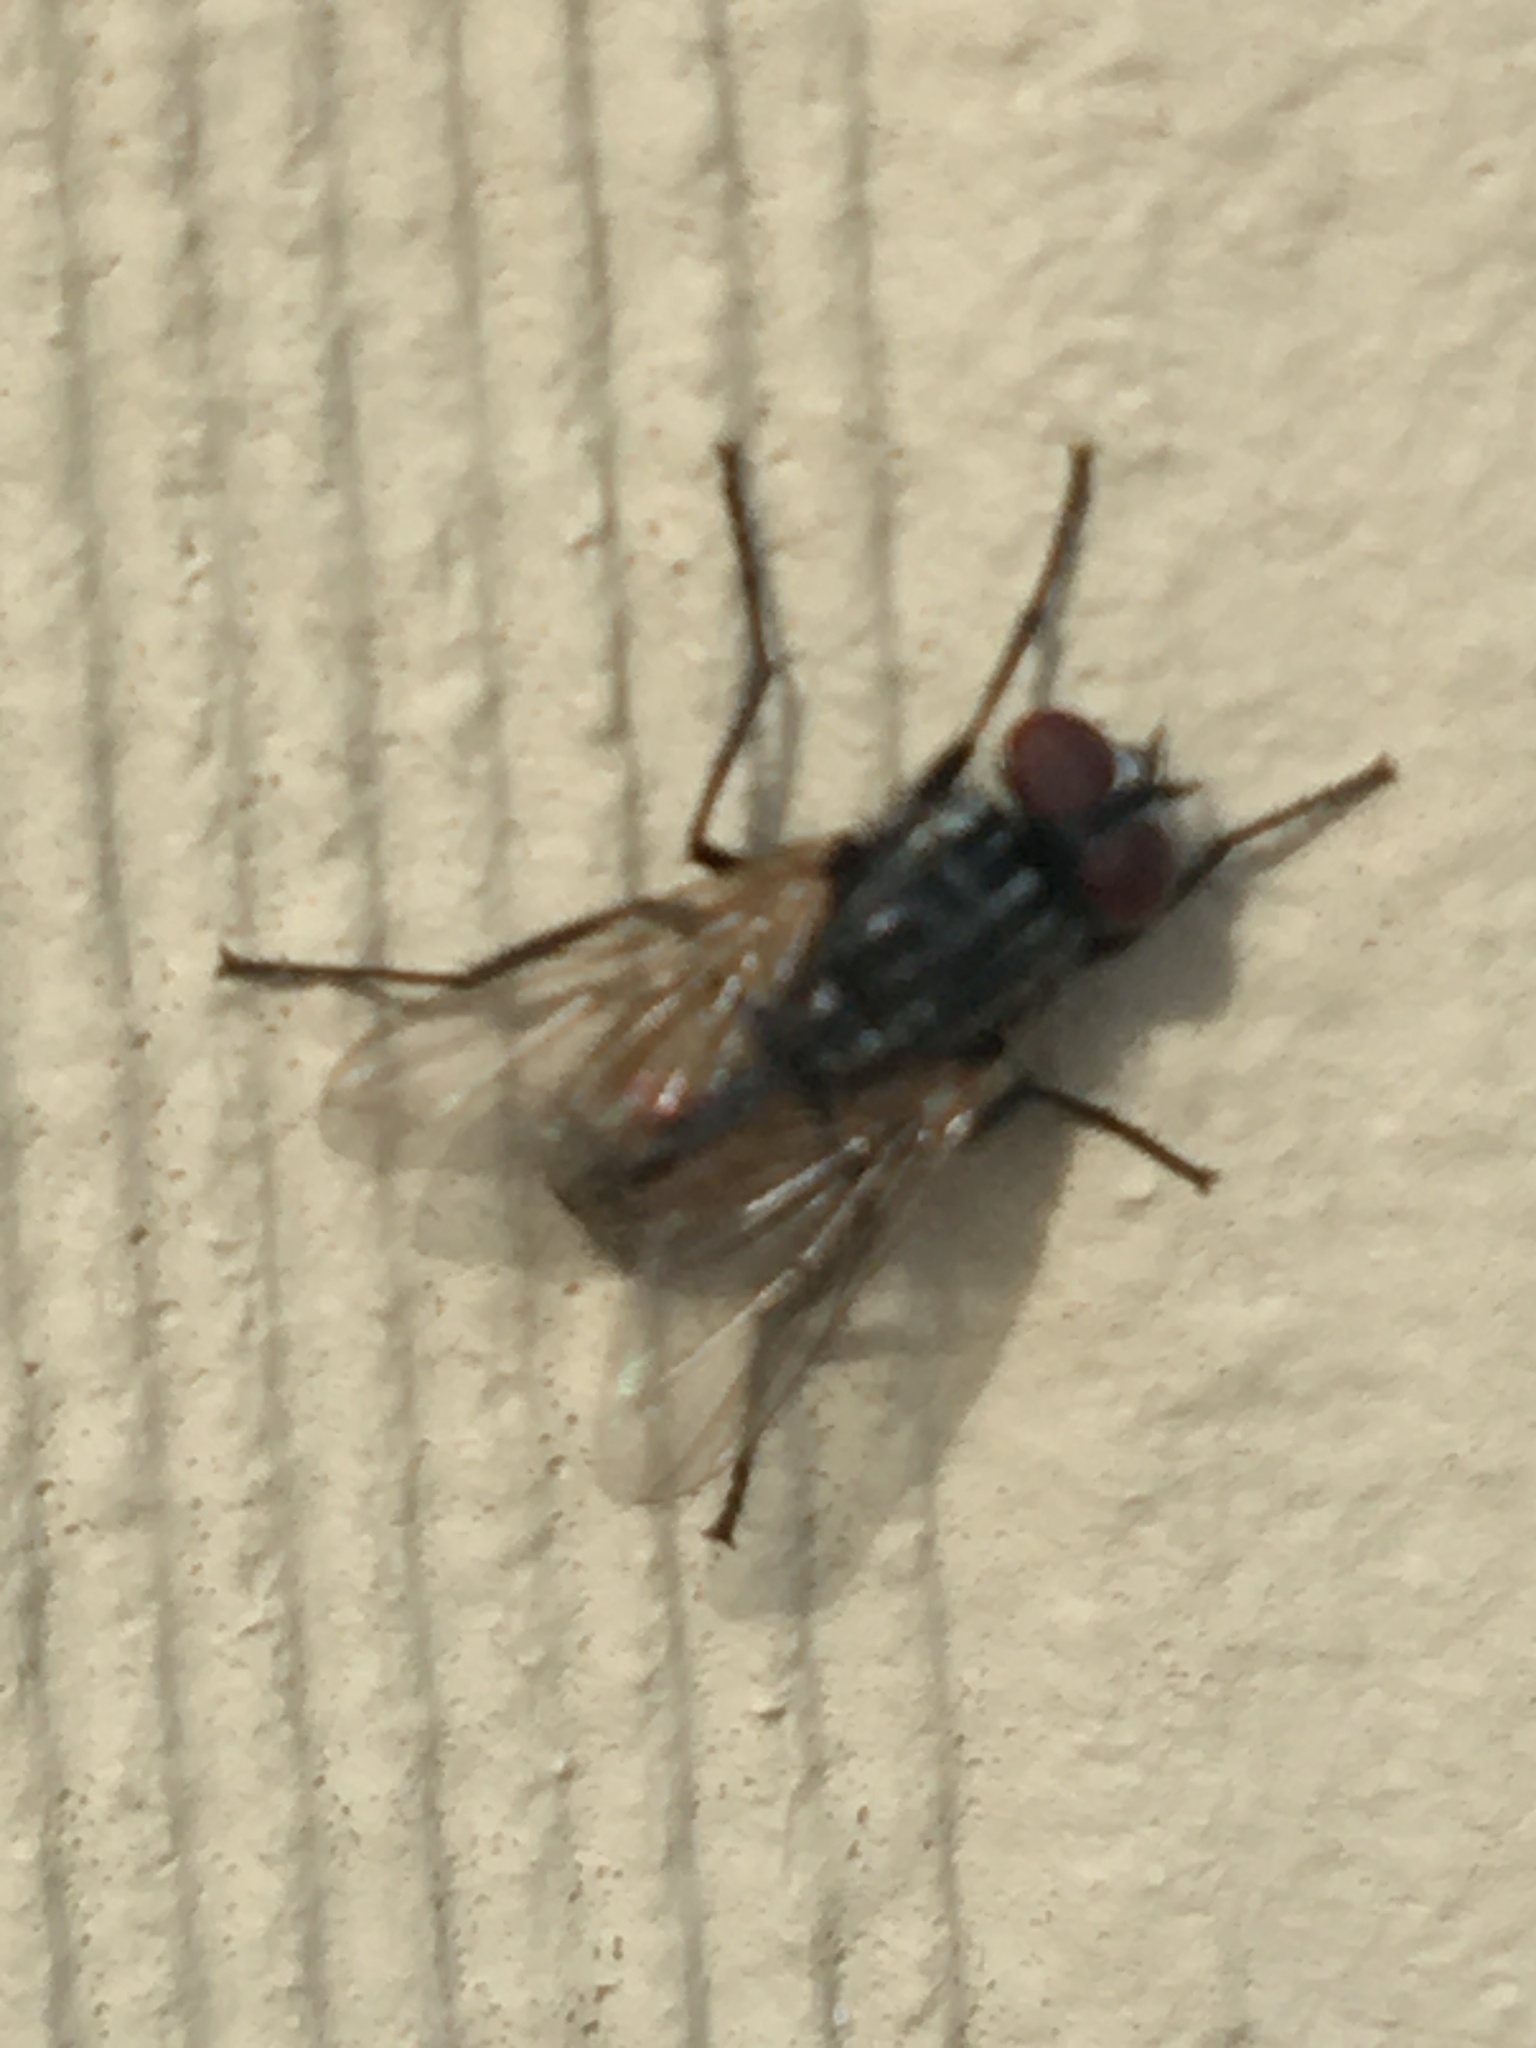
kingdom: Animalia
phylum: Arthropoda
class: Insecta
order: Diptera
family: Muscidae
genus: Musca
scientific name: Musca domestica
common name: House fly
